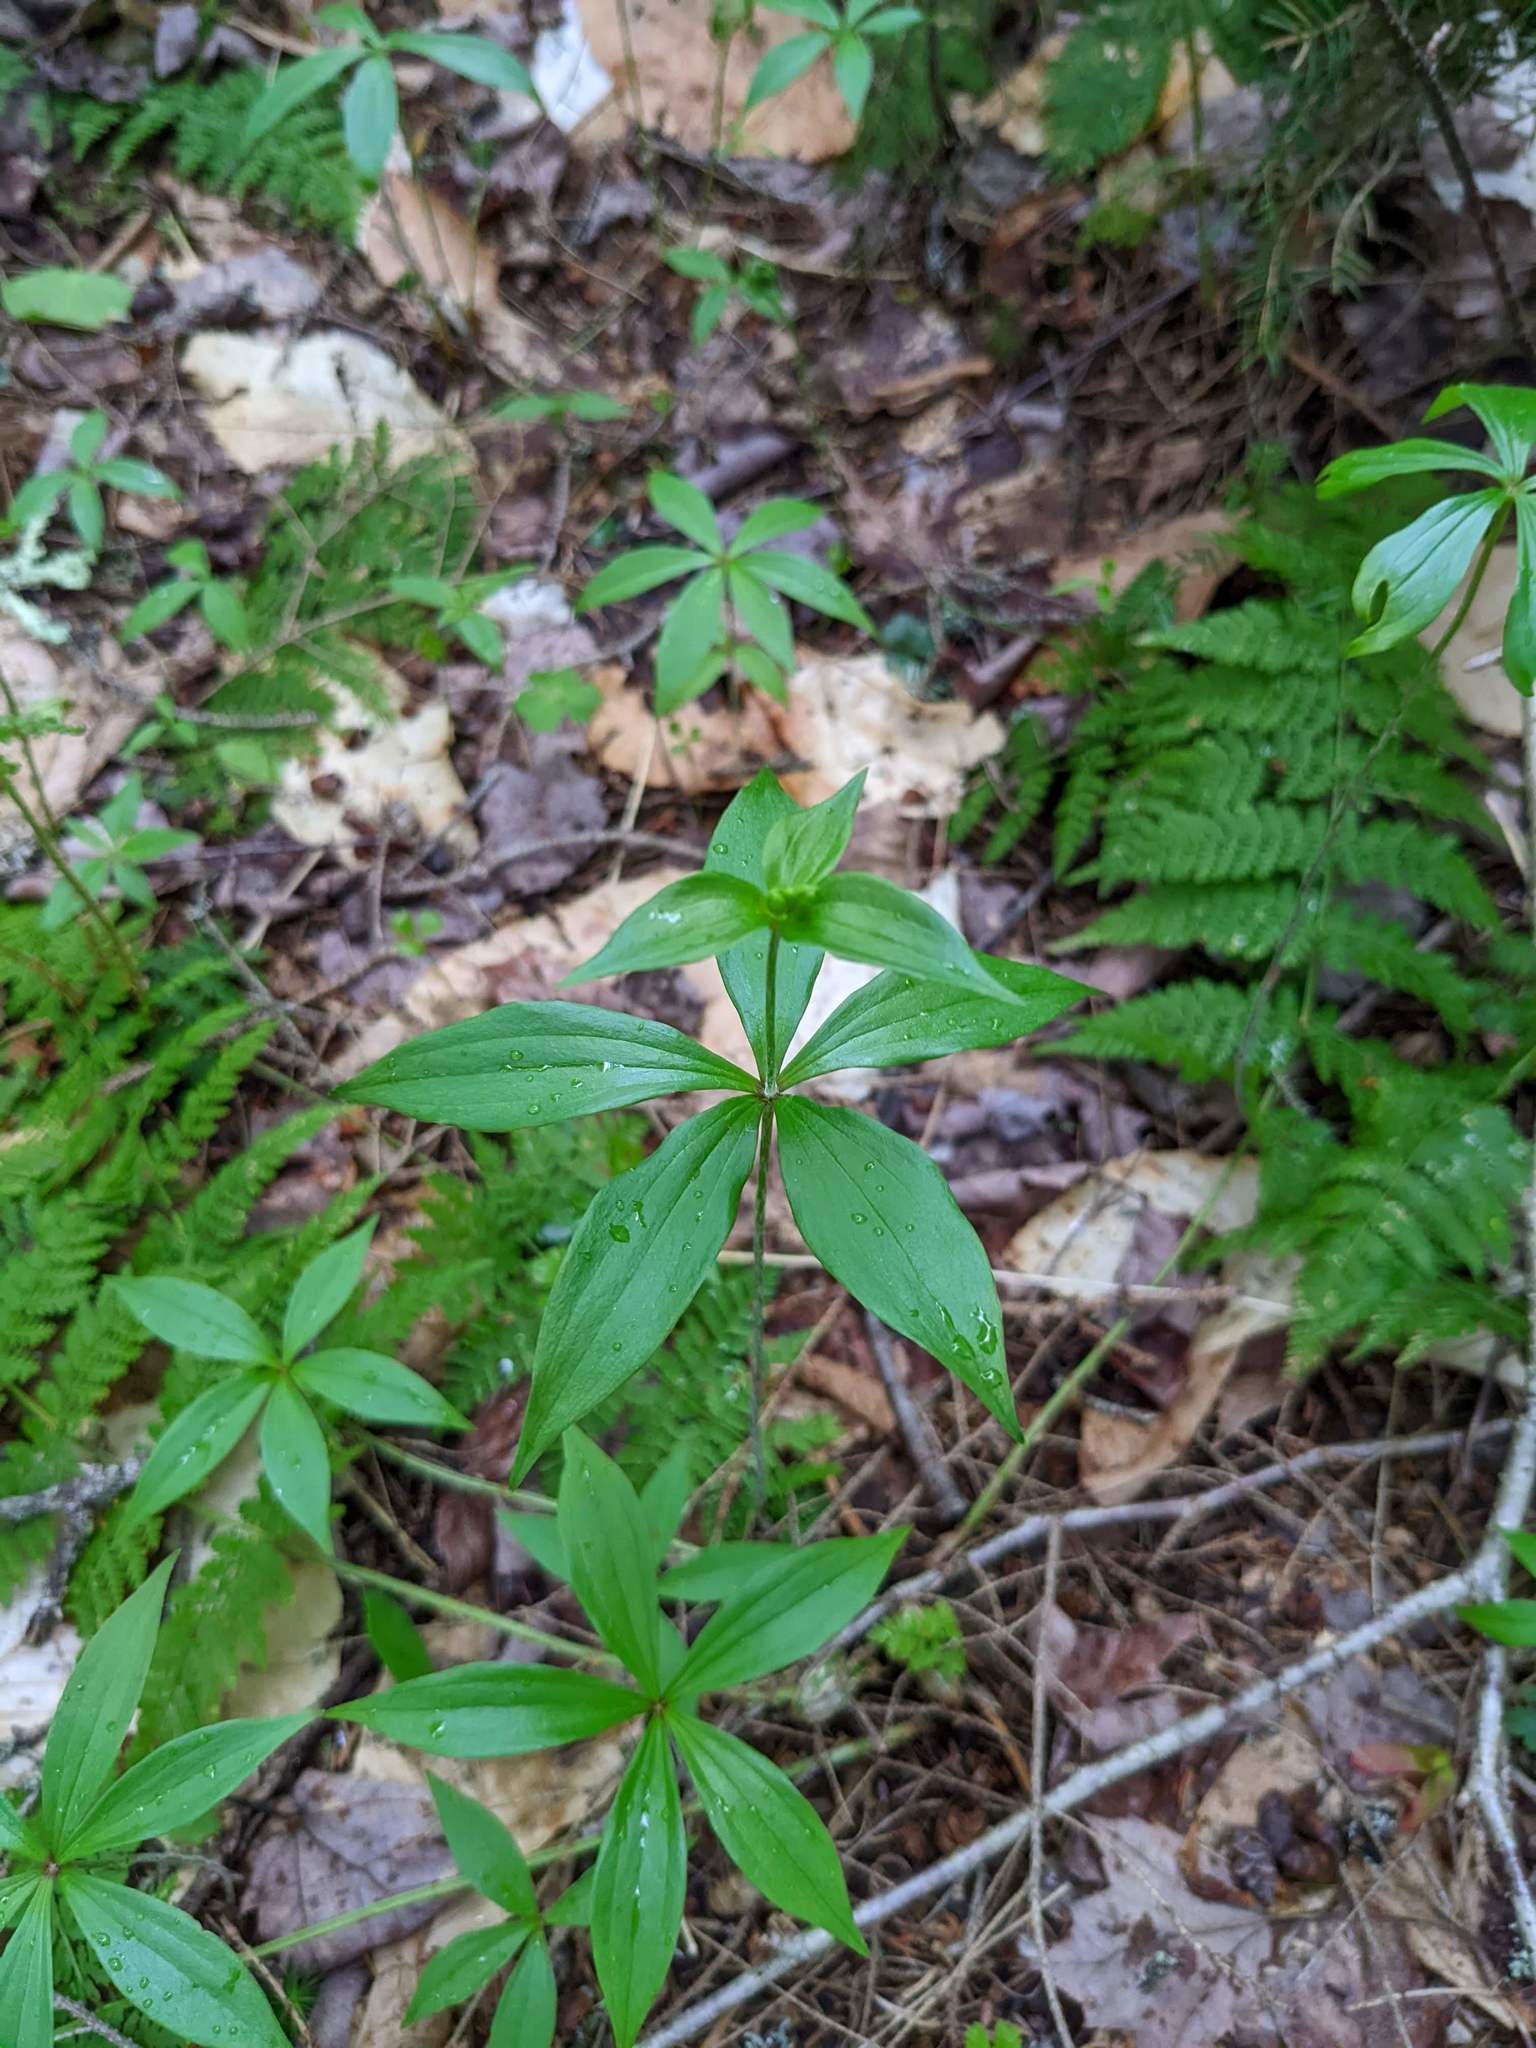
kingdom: Plantae
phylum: Tracheophyta
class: Liliopsida
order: Liliales
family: Liliaceae
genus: Medeola
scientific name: Medeola virginiana
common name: Indian cucumber-root
